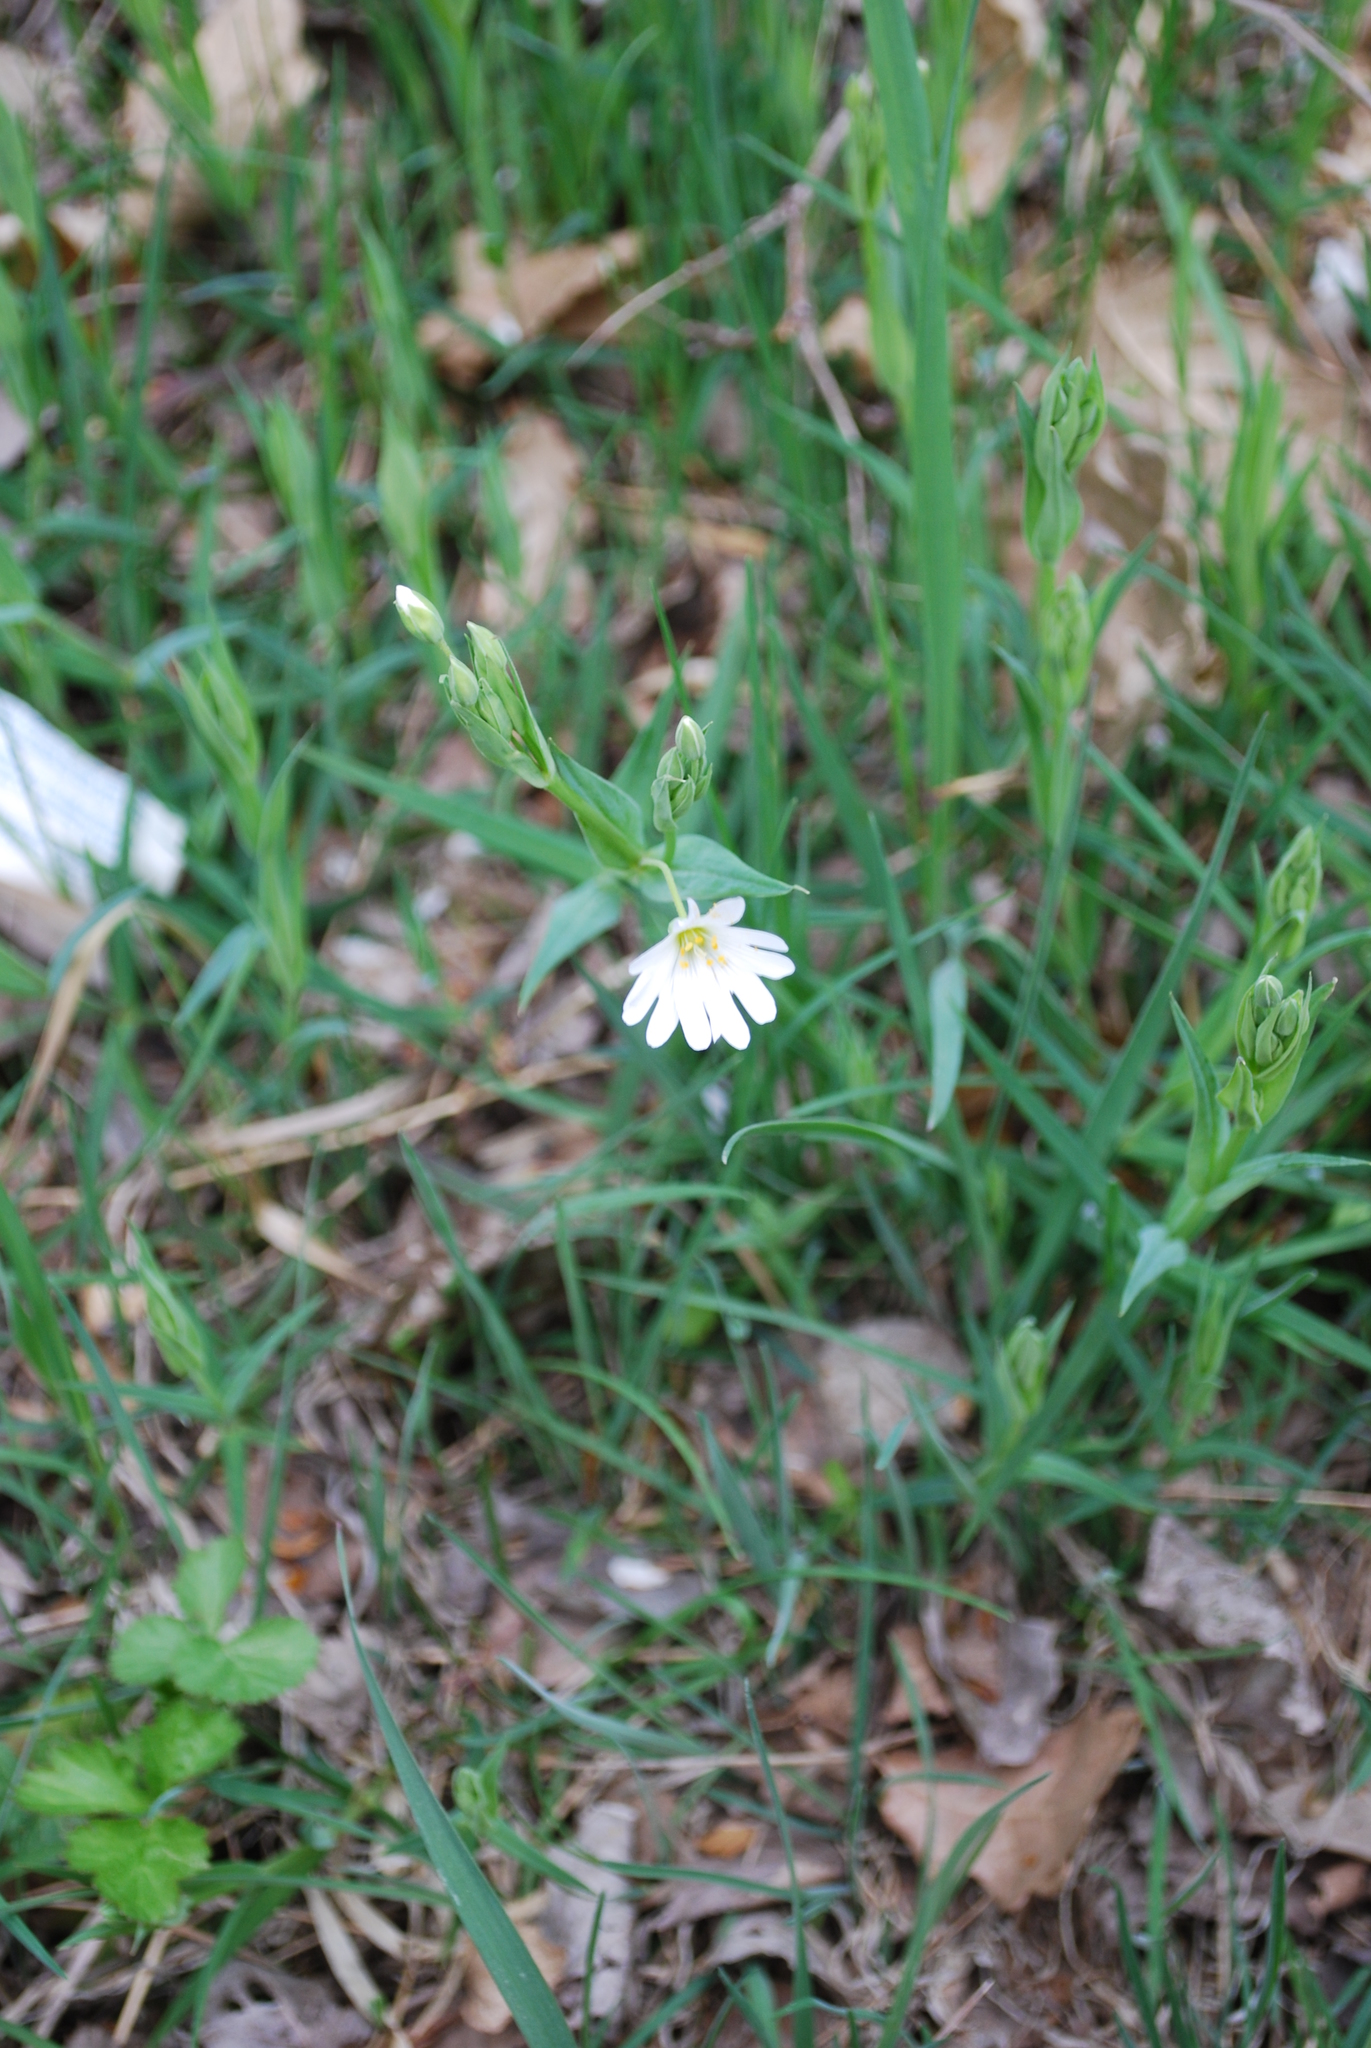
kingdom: Plantae
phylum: Tracheophyta
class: Magnoliopsida
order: Caryophyllales
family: Caryophyllaceae
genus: Rabelera
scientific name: Rabelera holostea
